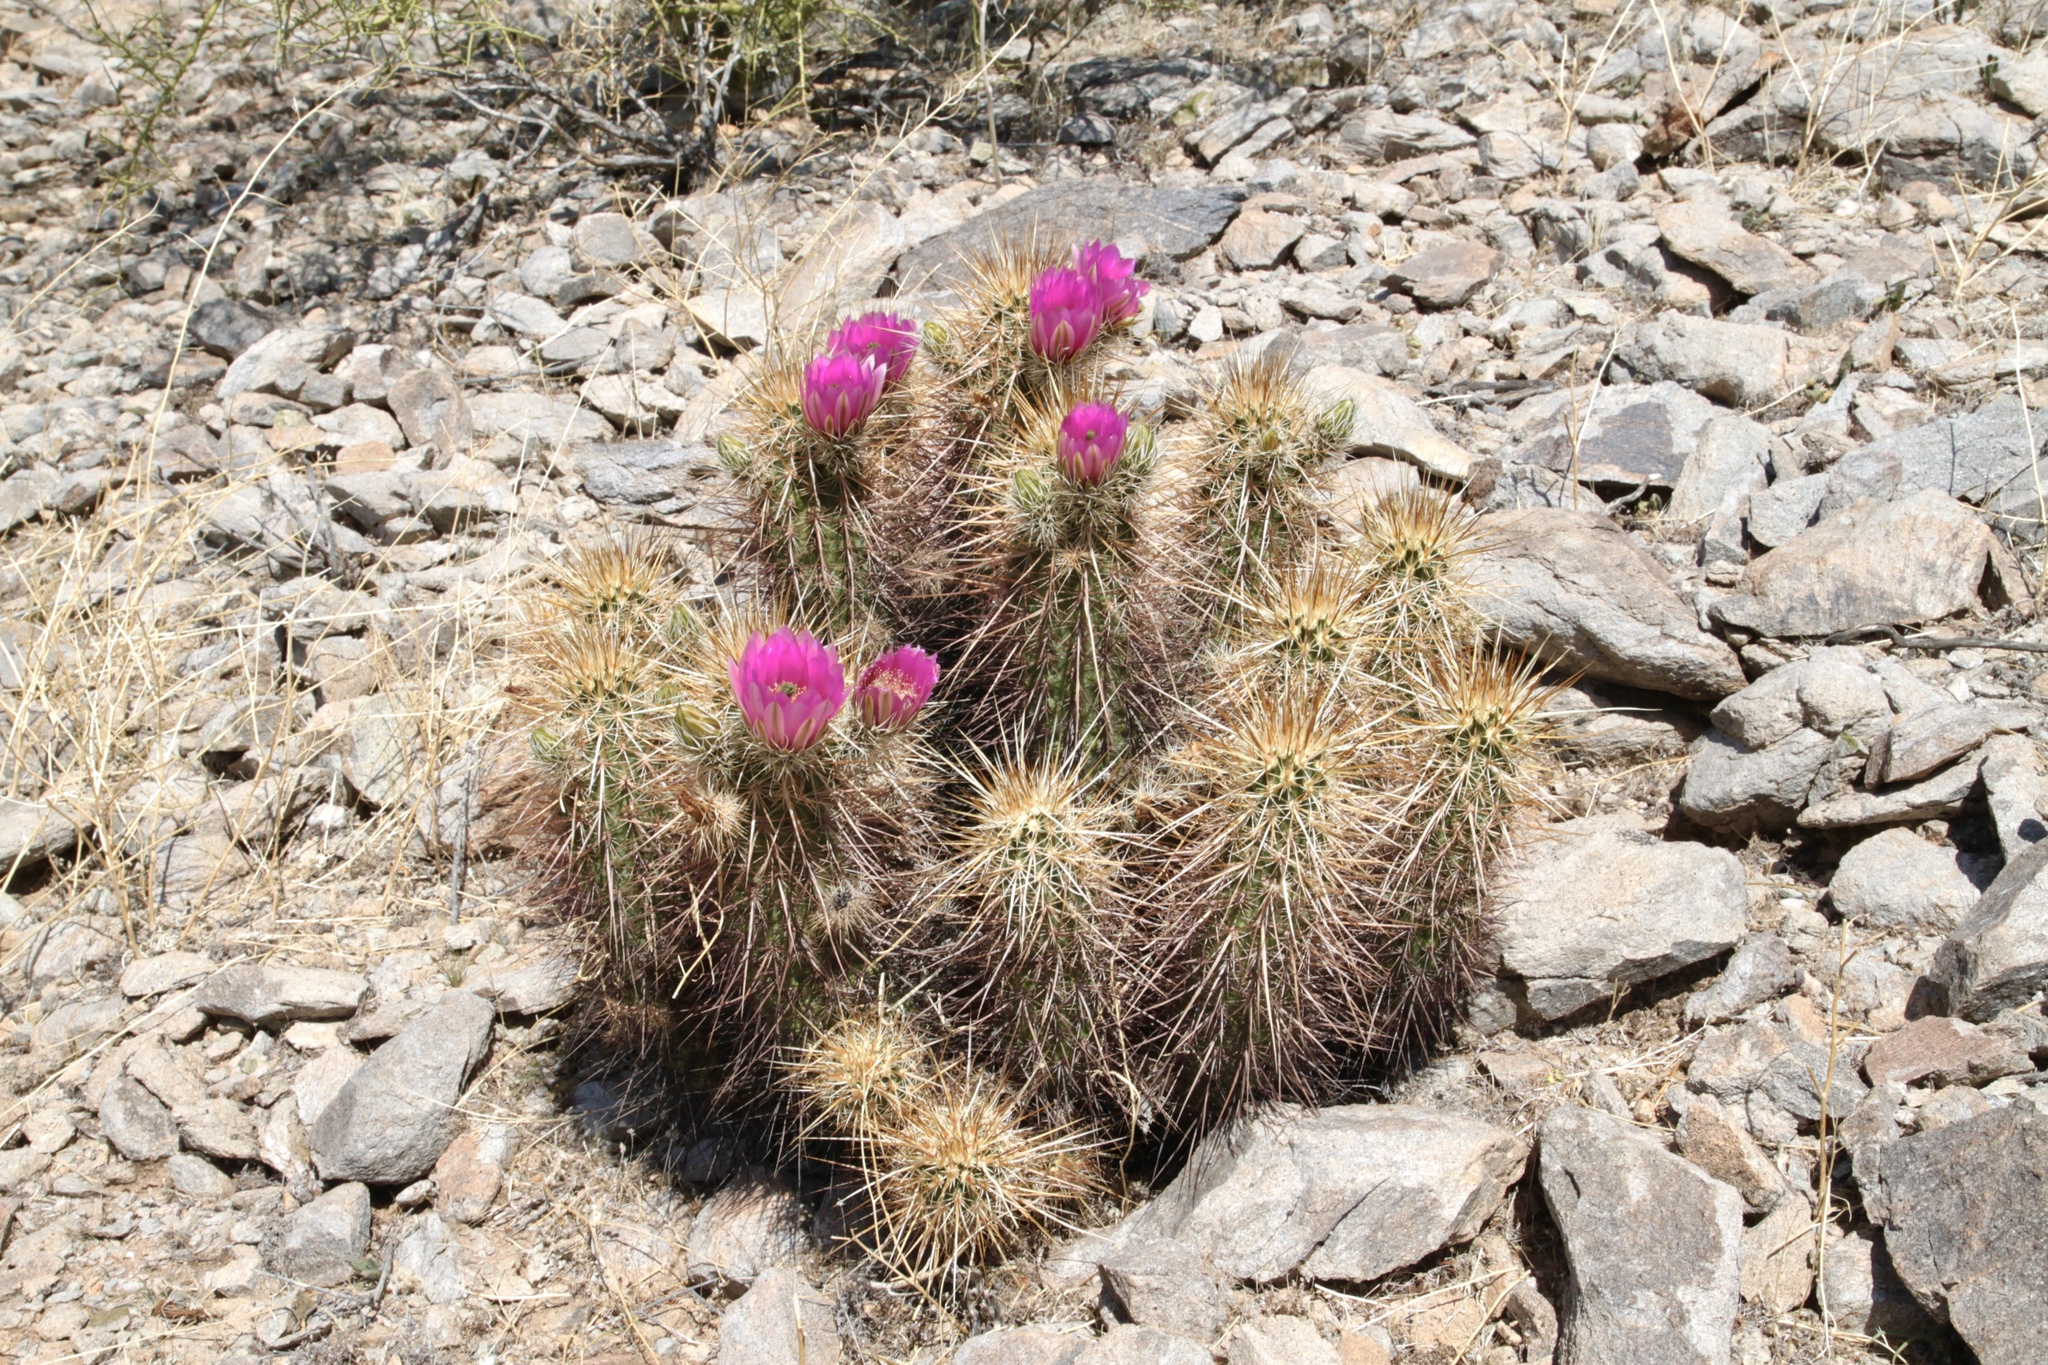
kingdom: Plantae
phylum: Tracheophyta
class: Magnoliopsida
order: Caryophyllales
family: Cactaceae
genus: Echinocereus
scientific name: Echinocereus engelmannii
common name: Engelmann's hedgehog cactus
